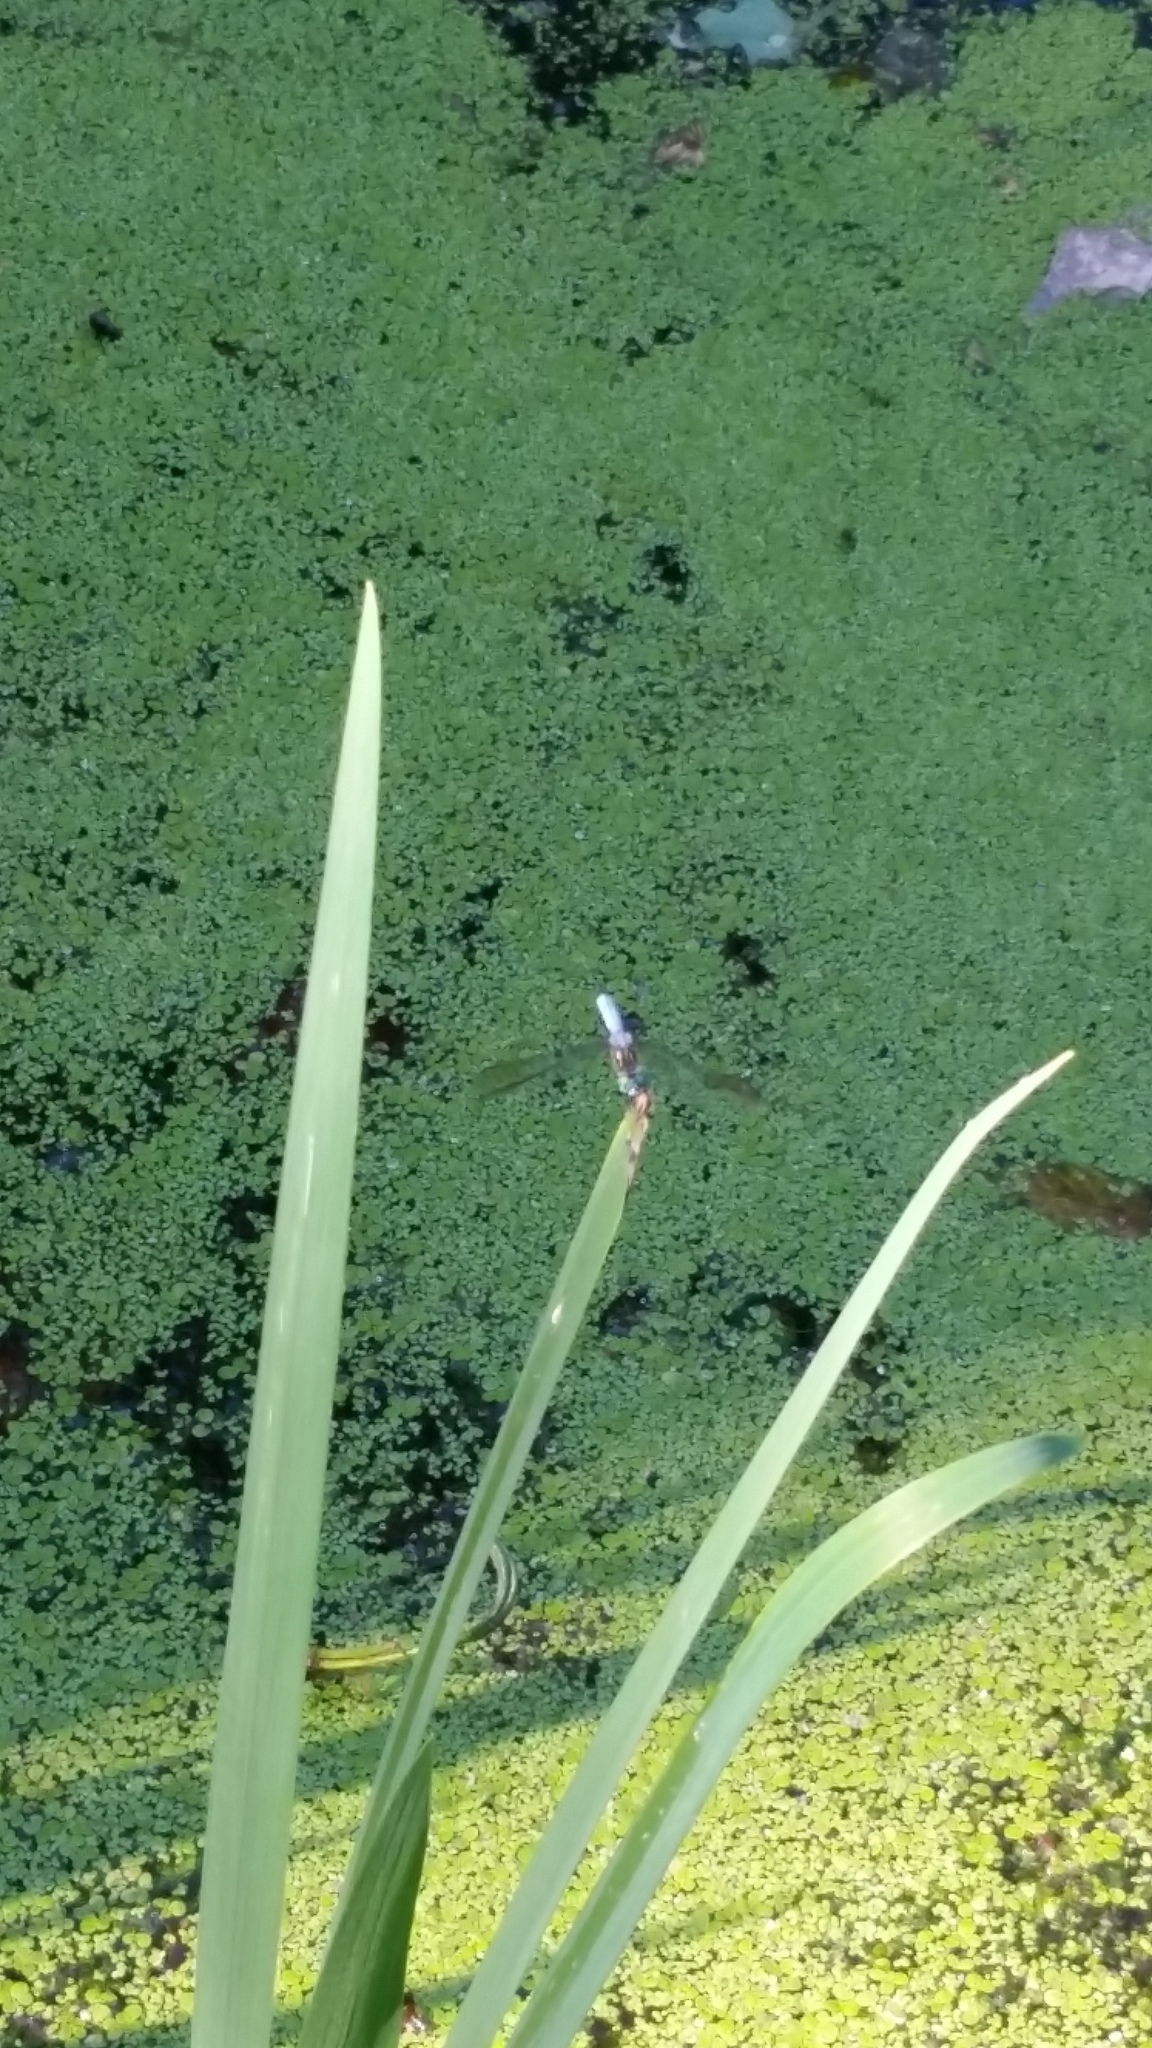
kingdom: Animalia
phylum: Arthropoda
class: Insecta
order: Odonata
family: Libellulidae
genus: Pachydiplax
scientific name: Pachydiplax longipennis
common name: Blue dasher
